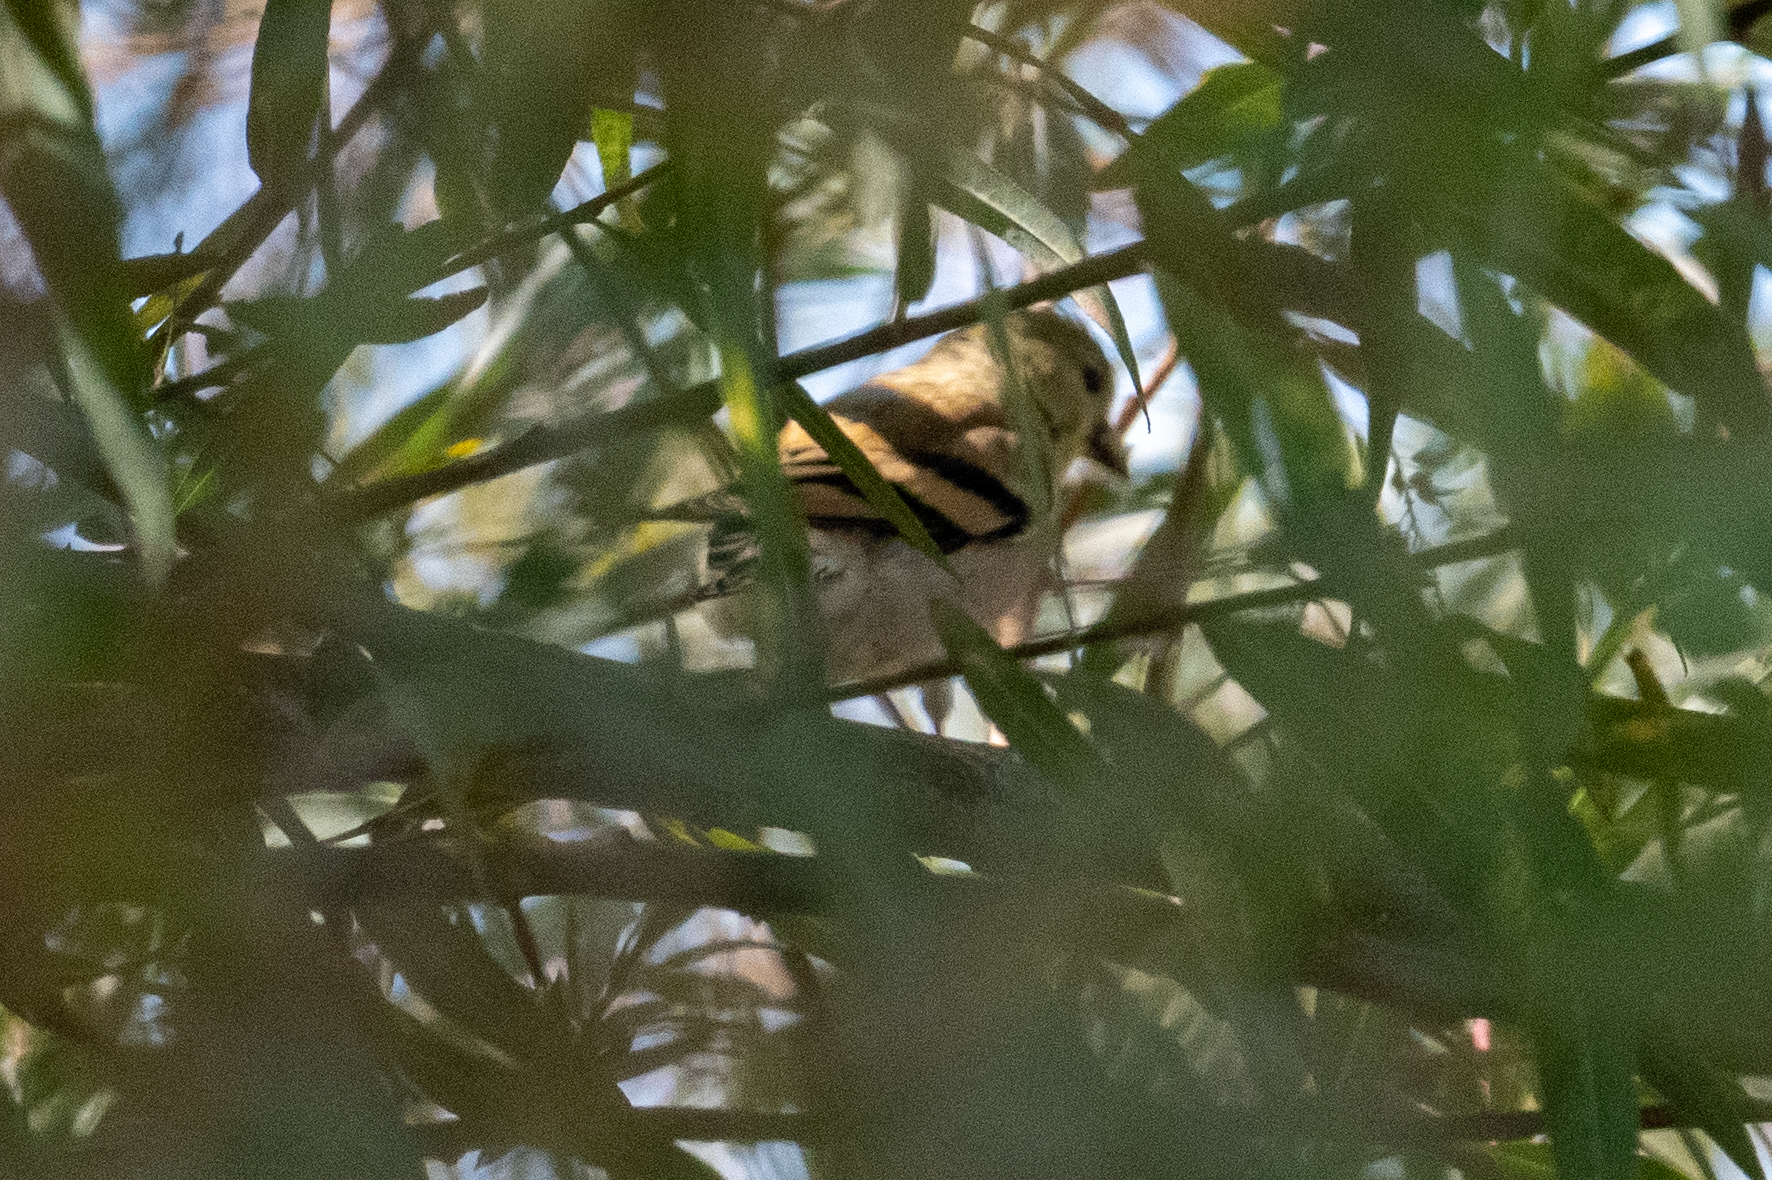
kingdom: Animalia
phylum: Chordata
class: Aves
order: Passeriformes
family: Fringillidae
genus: Spinus
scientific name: Spinus tristis
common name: American goldfinch
